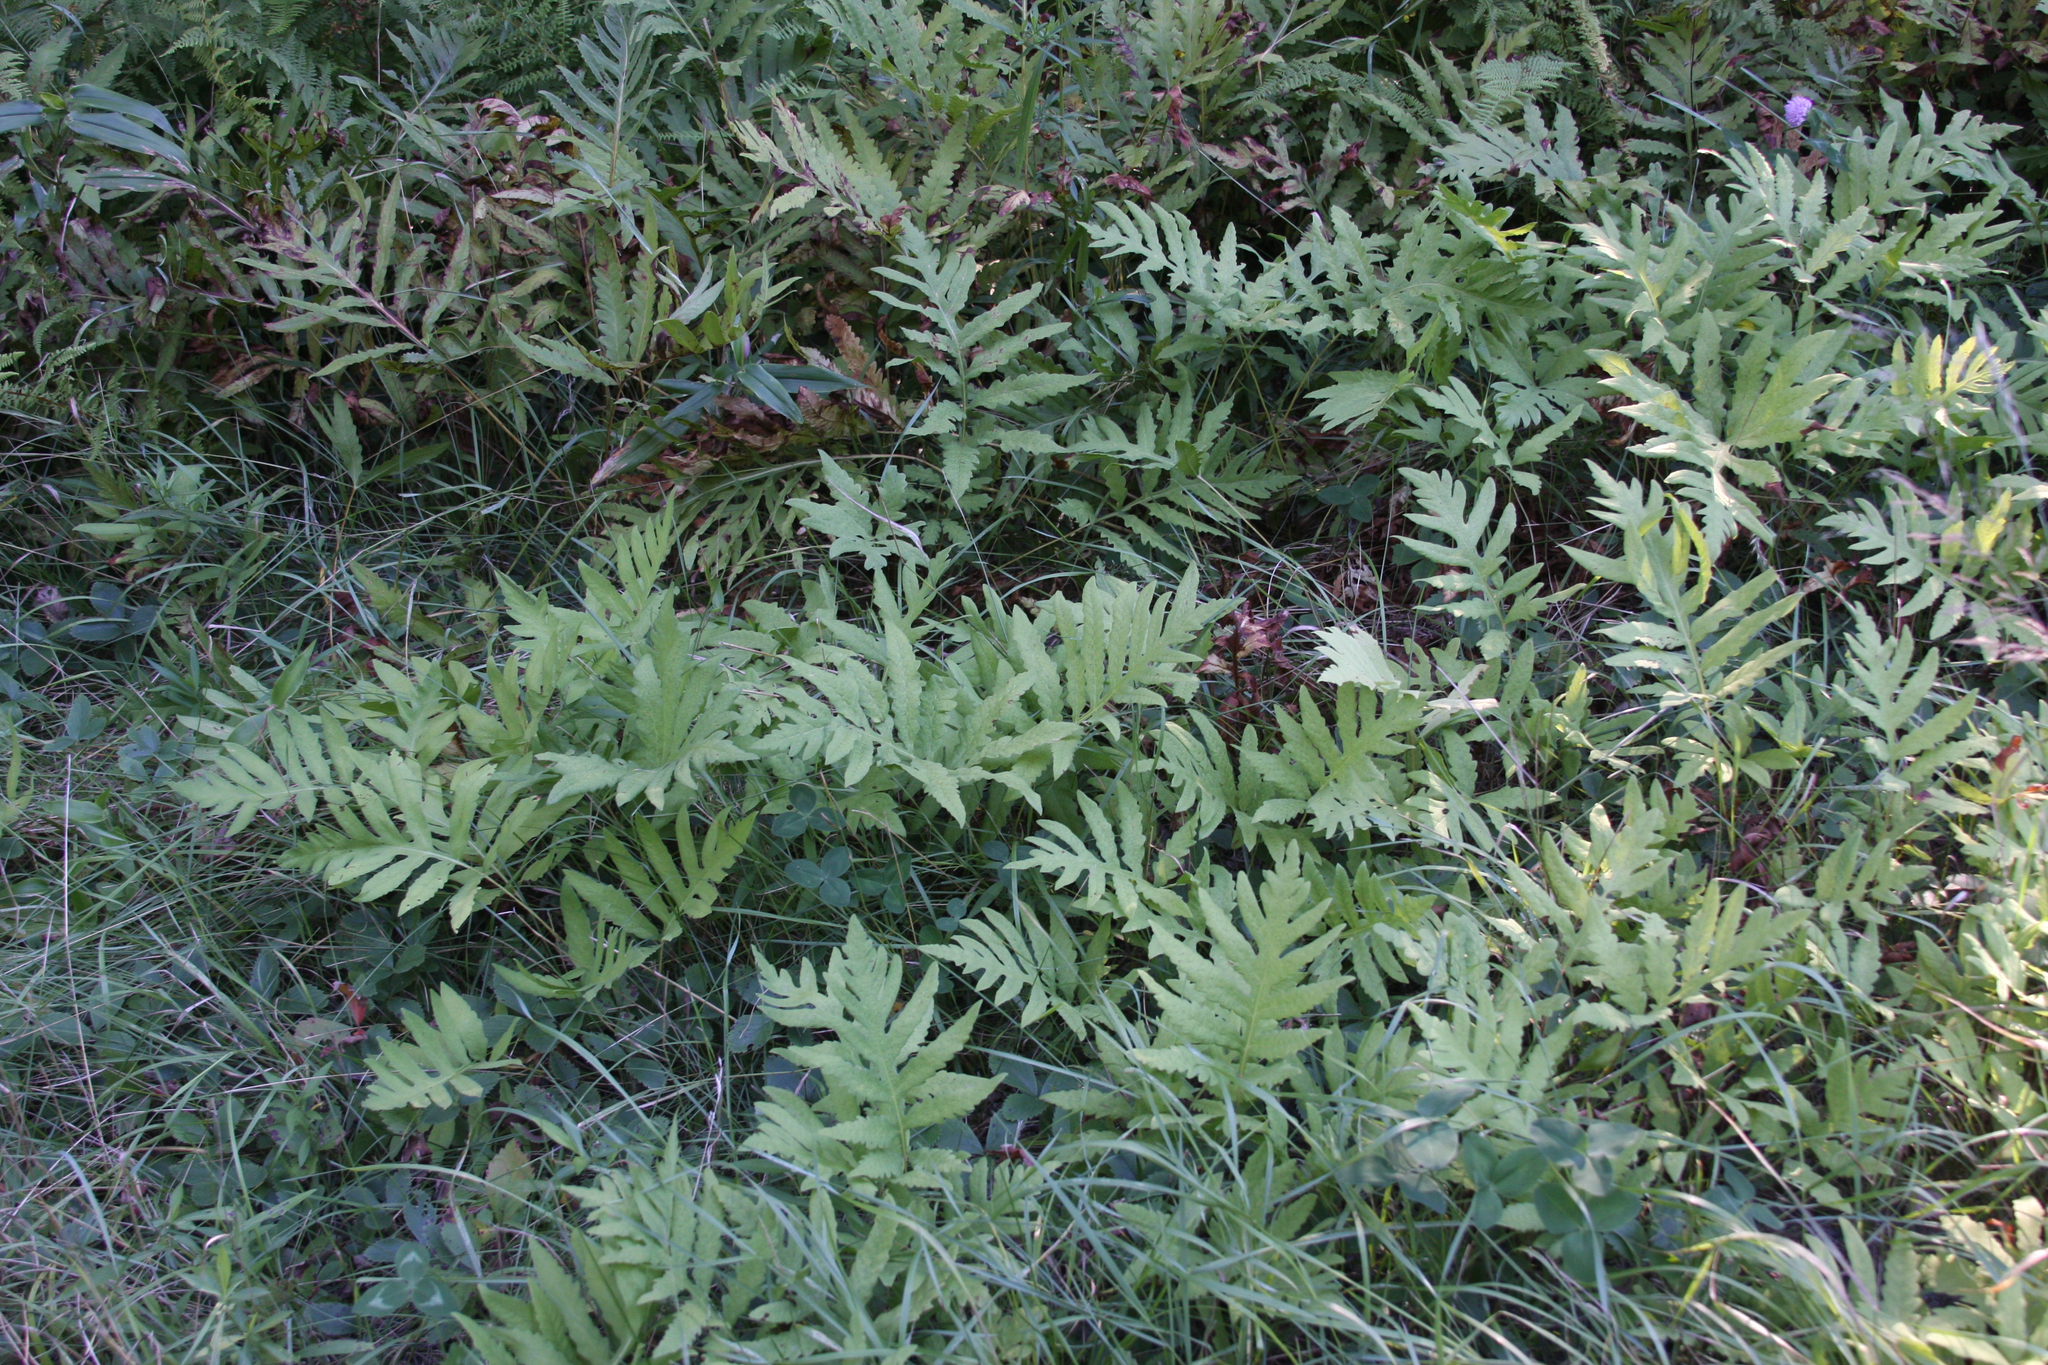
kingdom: Plantae
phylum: Tracheophyta
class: Polypodiopsida
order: Polypodiales
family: Onocleaceae
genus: Onoclea
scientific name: Onoclea sensibilis
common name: Sensitive fern
